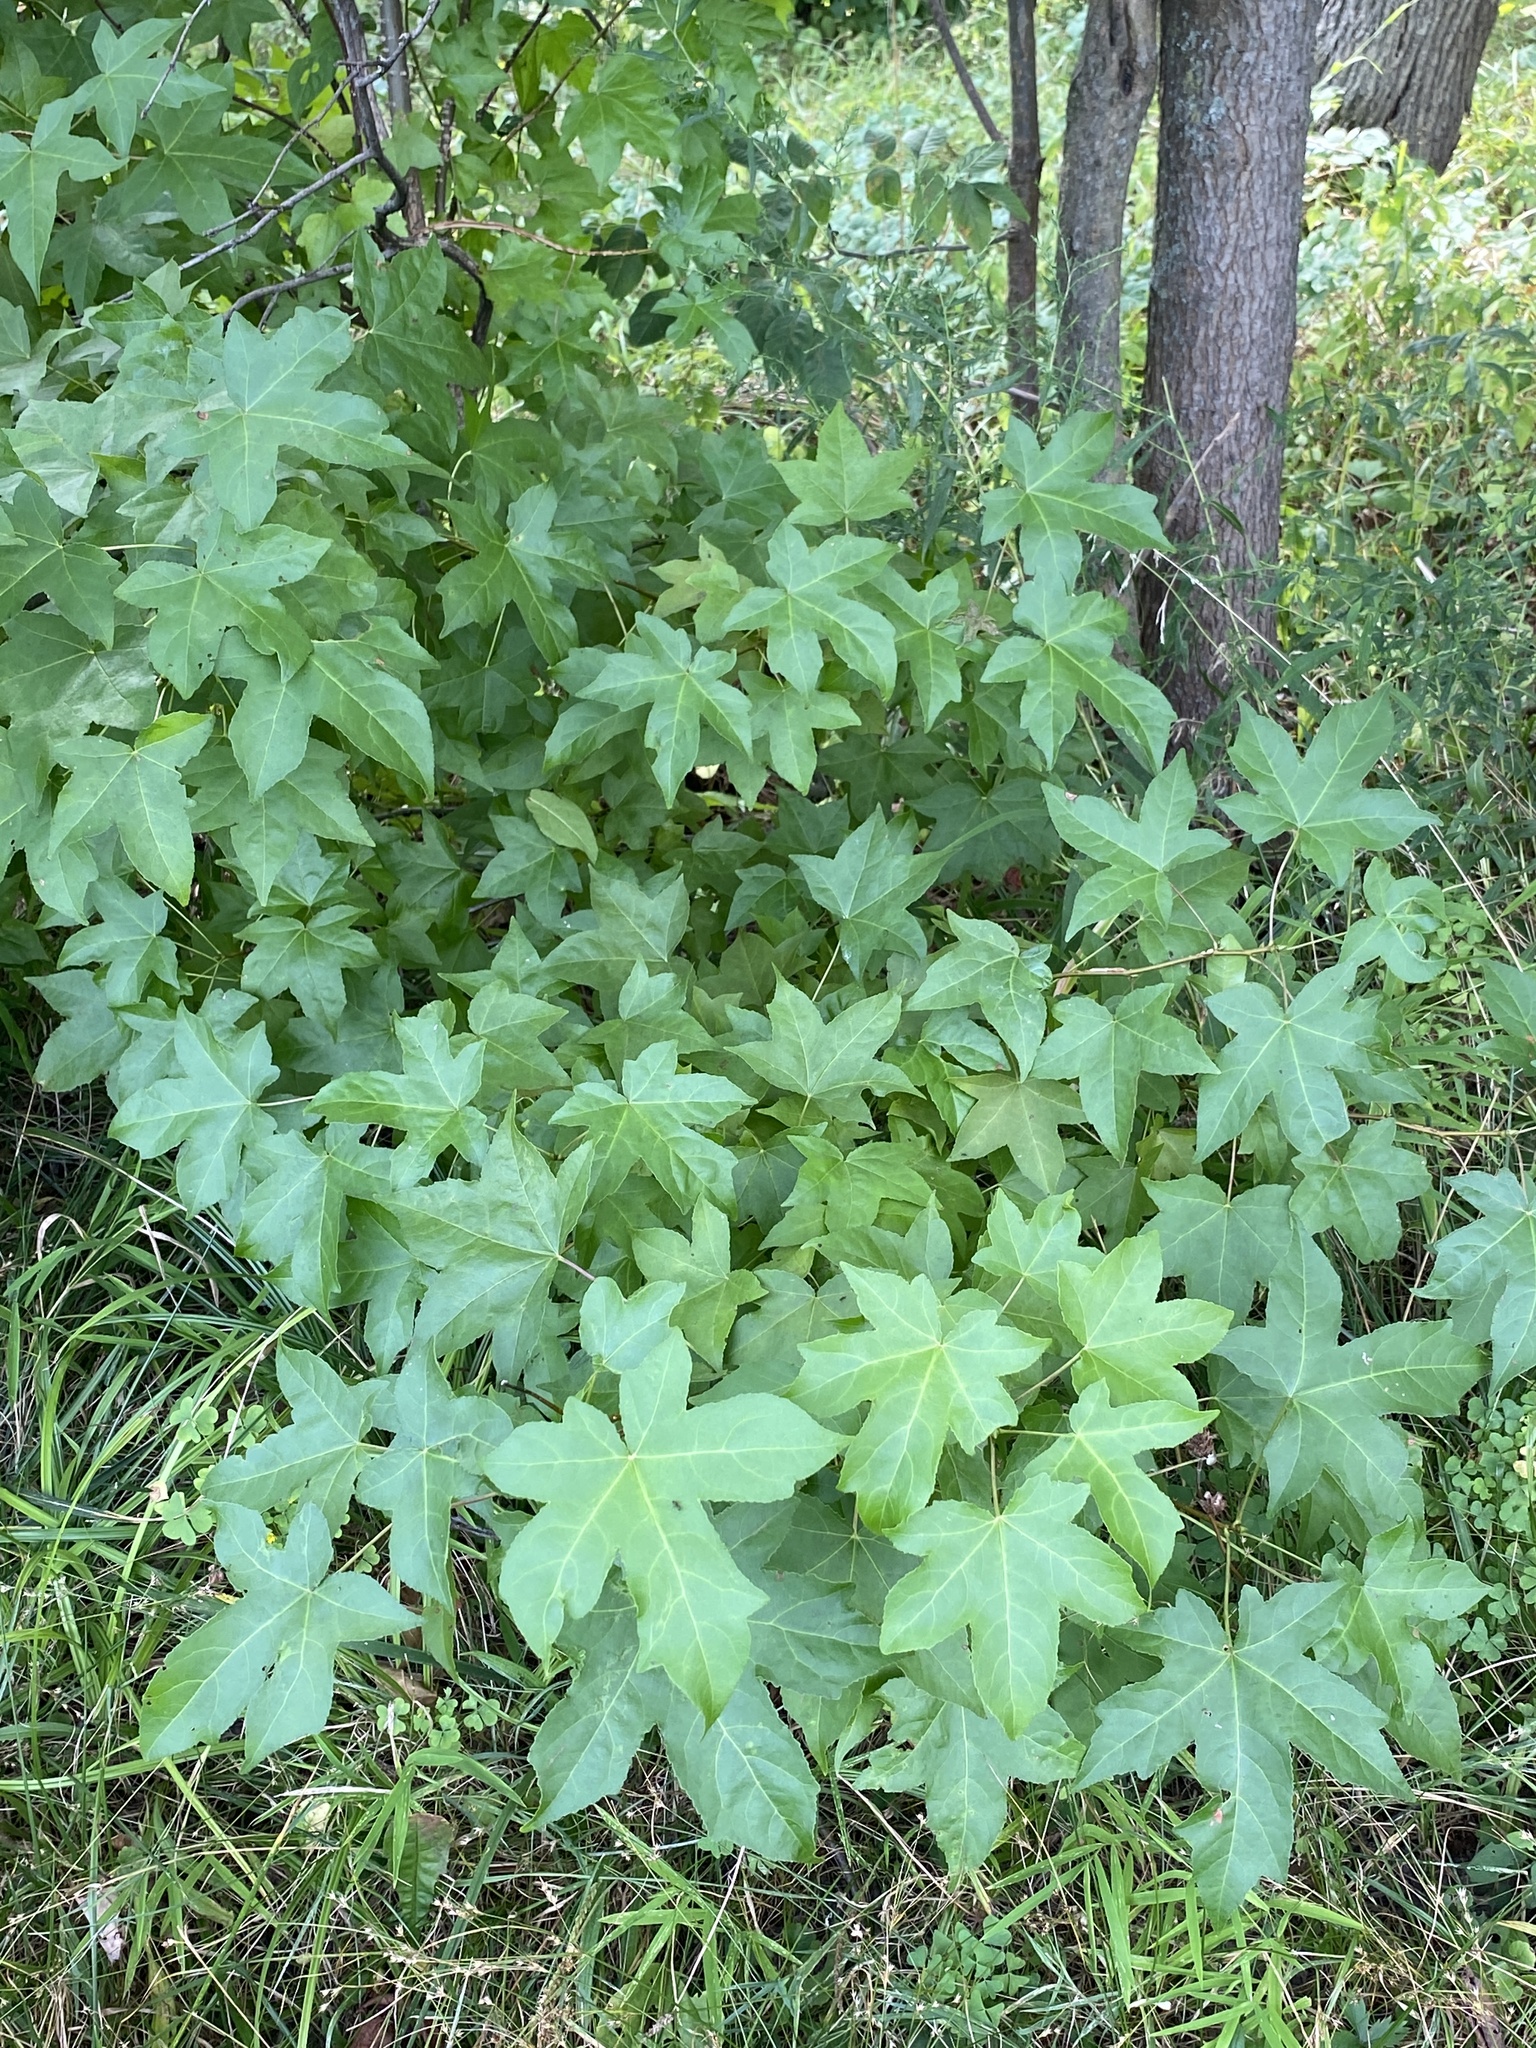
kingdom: Plantae
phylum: Tracheophyta
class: Magnoliopsida
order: Saxifragales
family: Altingiaceae
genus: Liquidambar
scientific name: Liquidambar styraciflua
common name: Sweet gum
